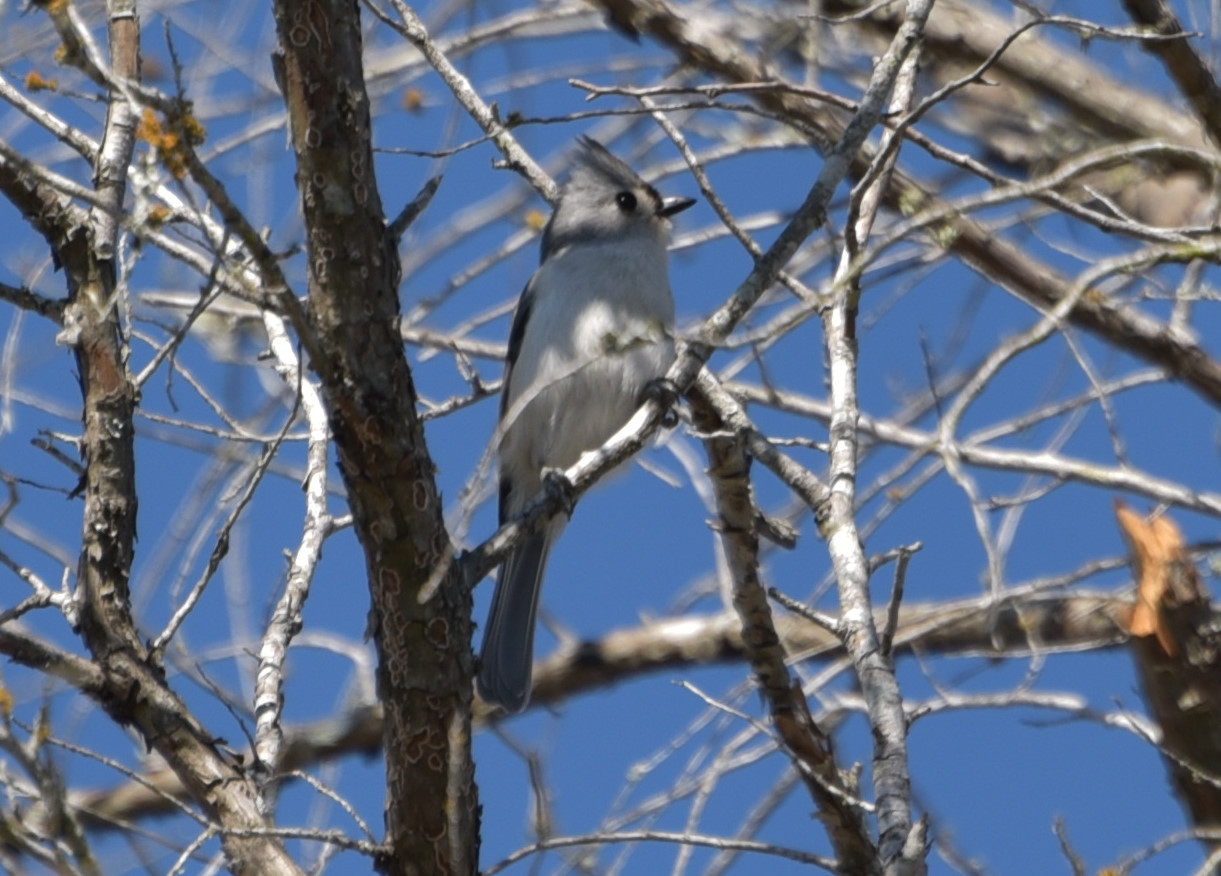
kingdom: Animalia
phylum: Chordata
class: Aves
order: Passeriformes
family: Paridae
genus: Baeolophus
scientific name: Baeolophus bicolor
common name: Tufted titmouse
